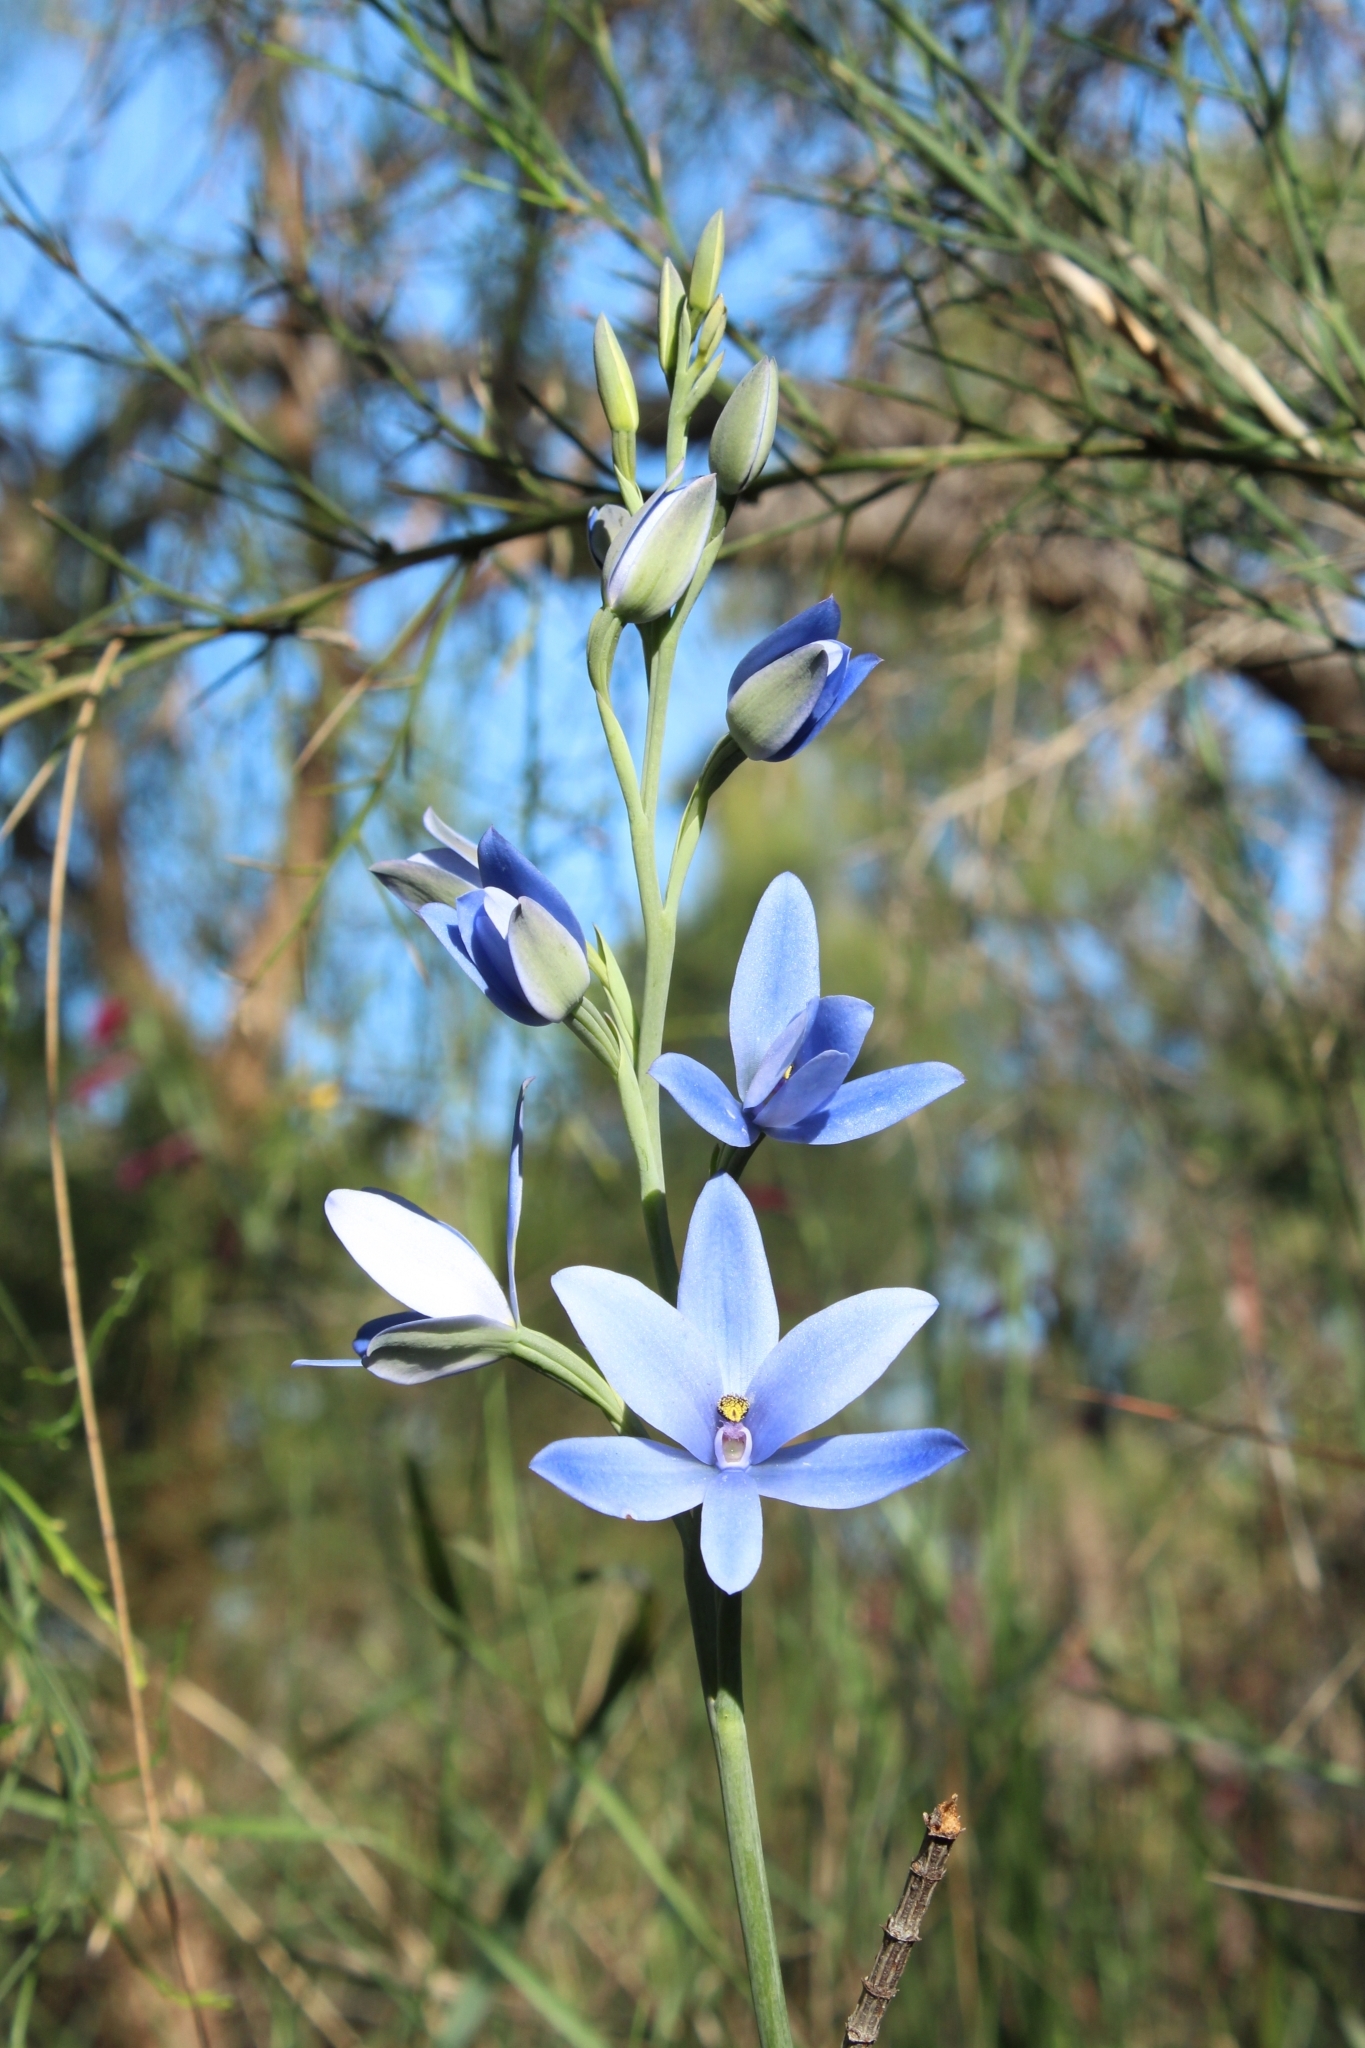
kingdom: Plantae
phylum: Tracheophyta
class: Liliopsida
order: Asparagales
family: Orchidaceae
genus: Thelymitra
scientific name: Thelymitra crinita
